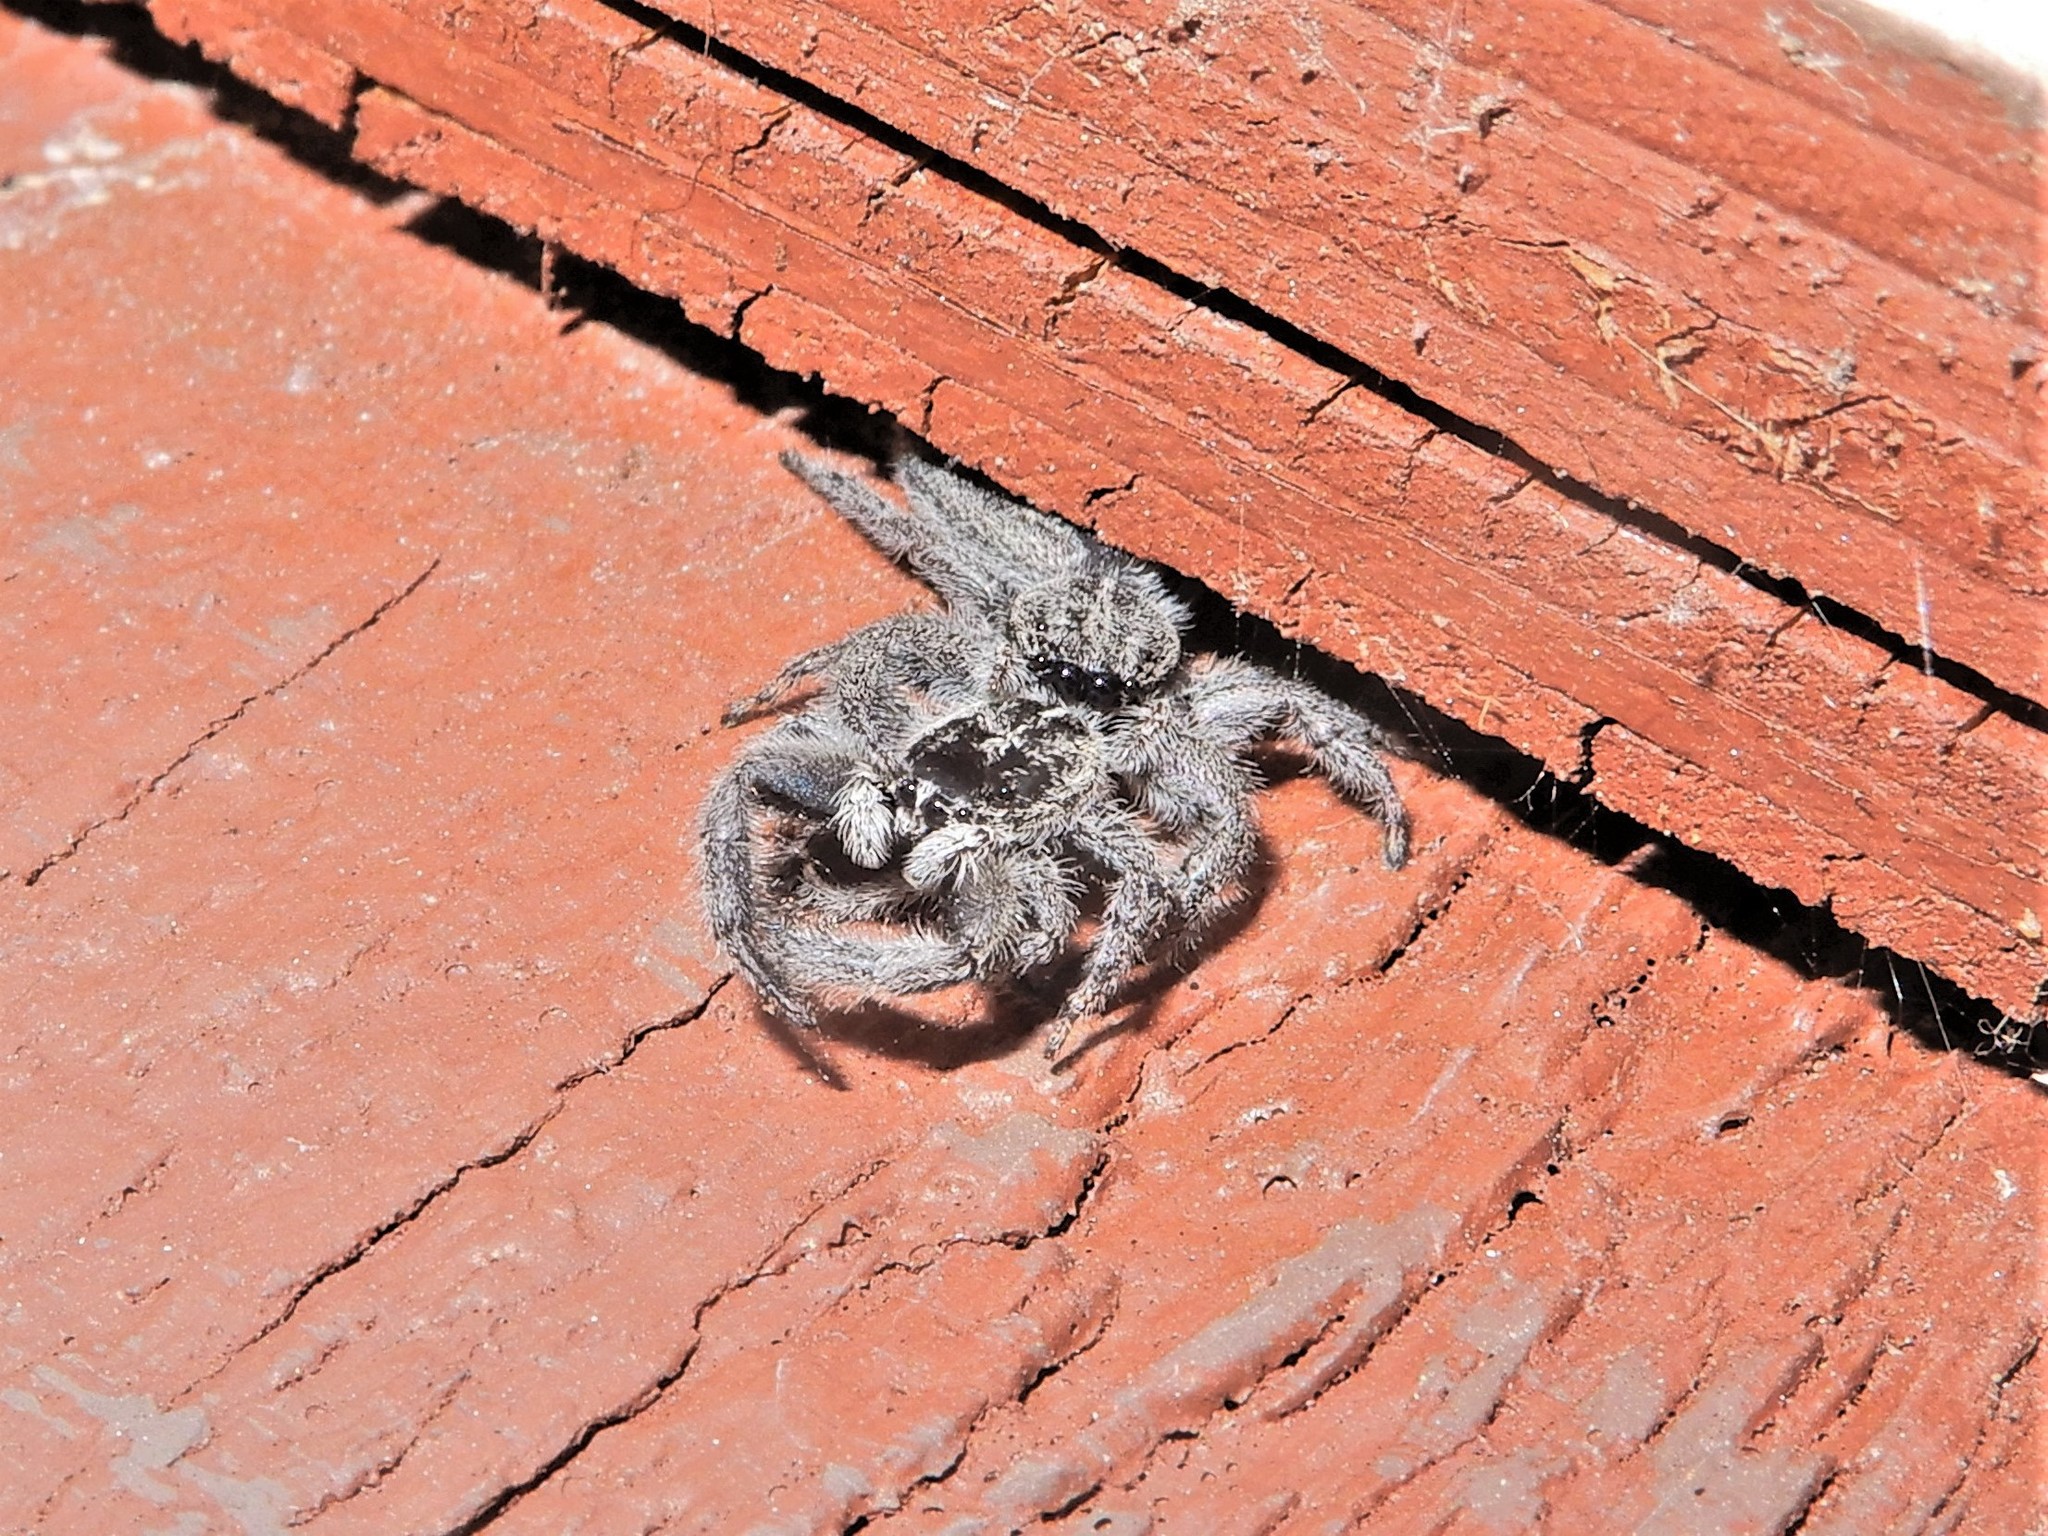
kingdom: Animalia
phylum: Arthropoda
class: Arachnida
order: Araneae
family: Salticidae
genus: Holoplatys
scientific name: Holoplatys apressus
